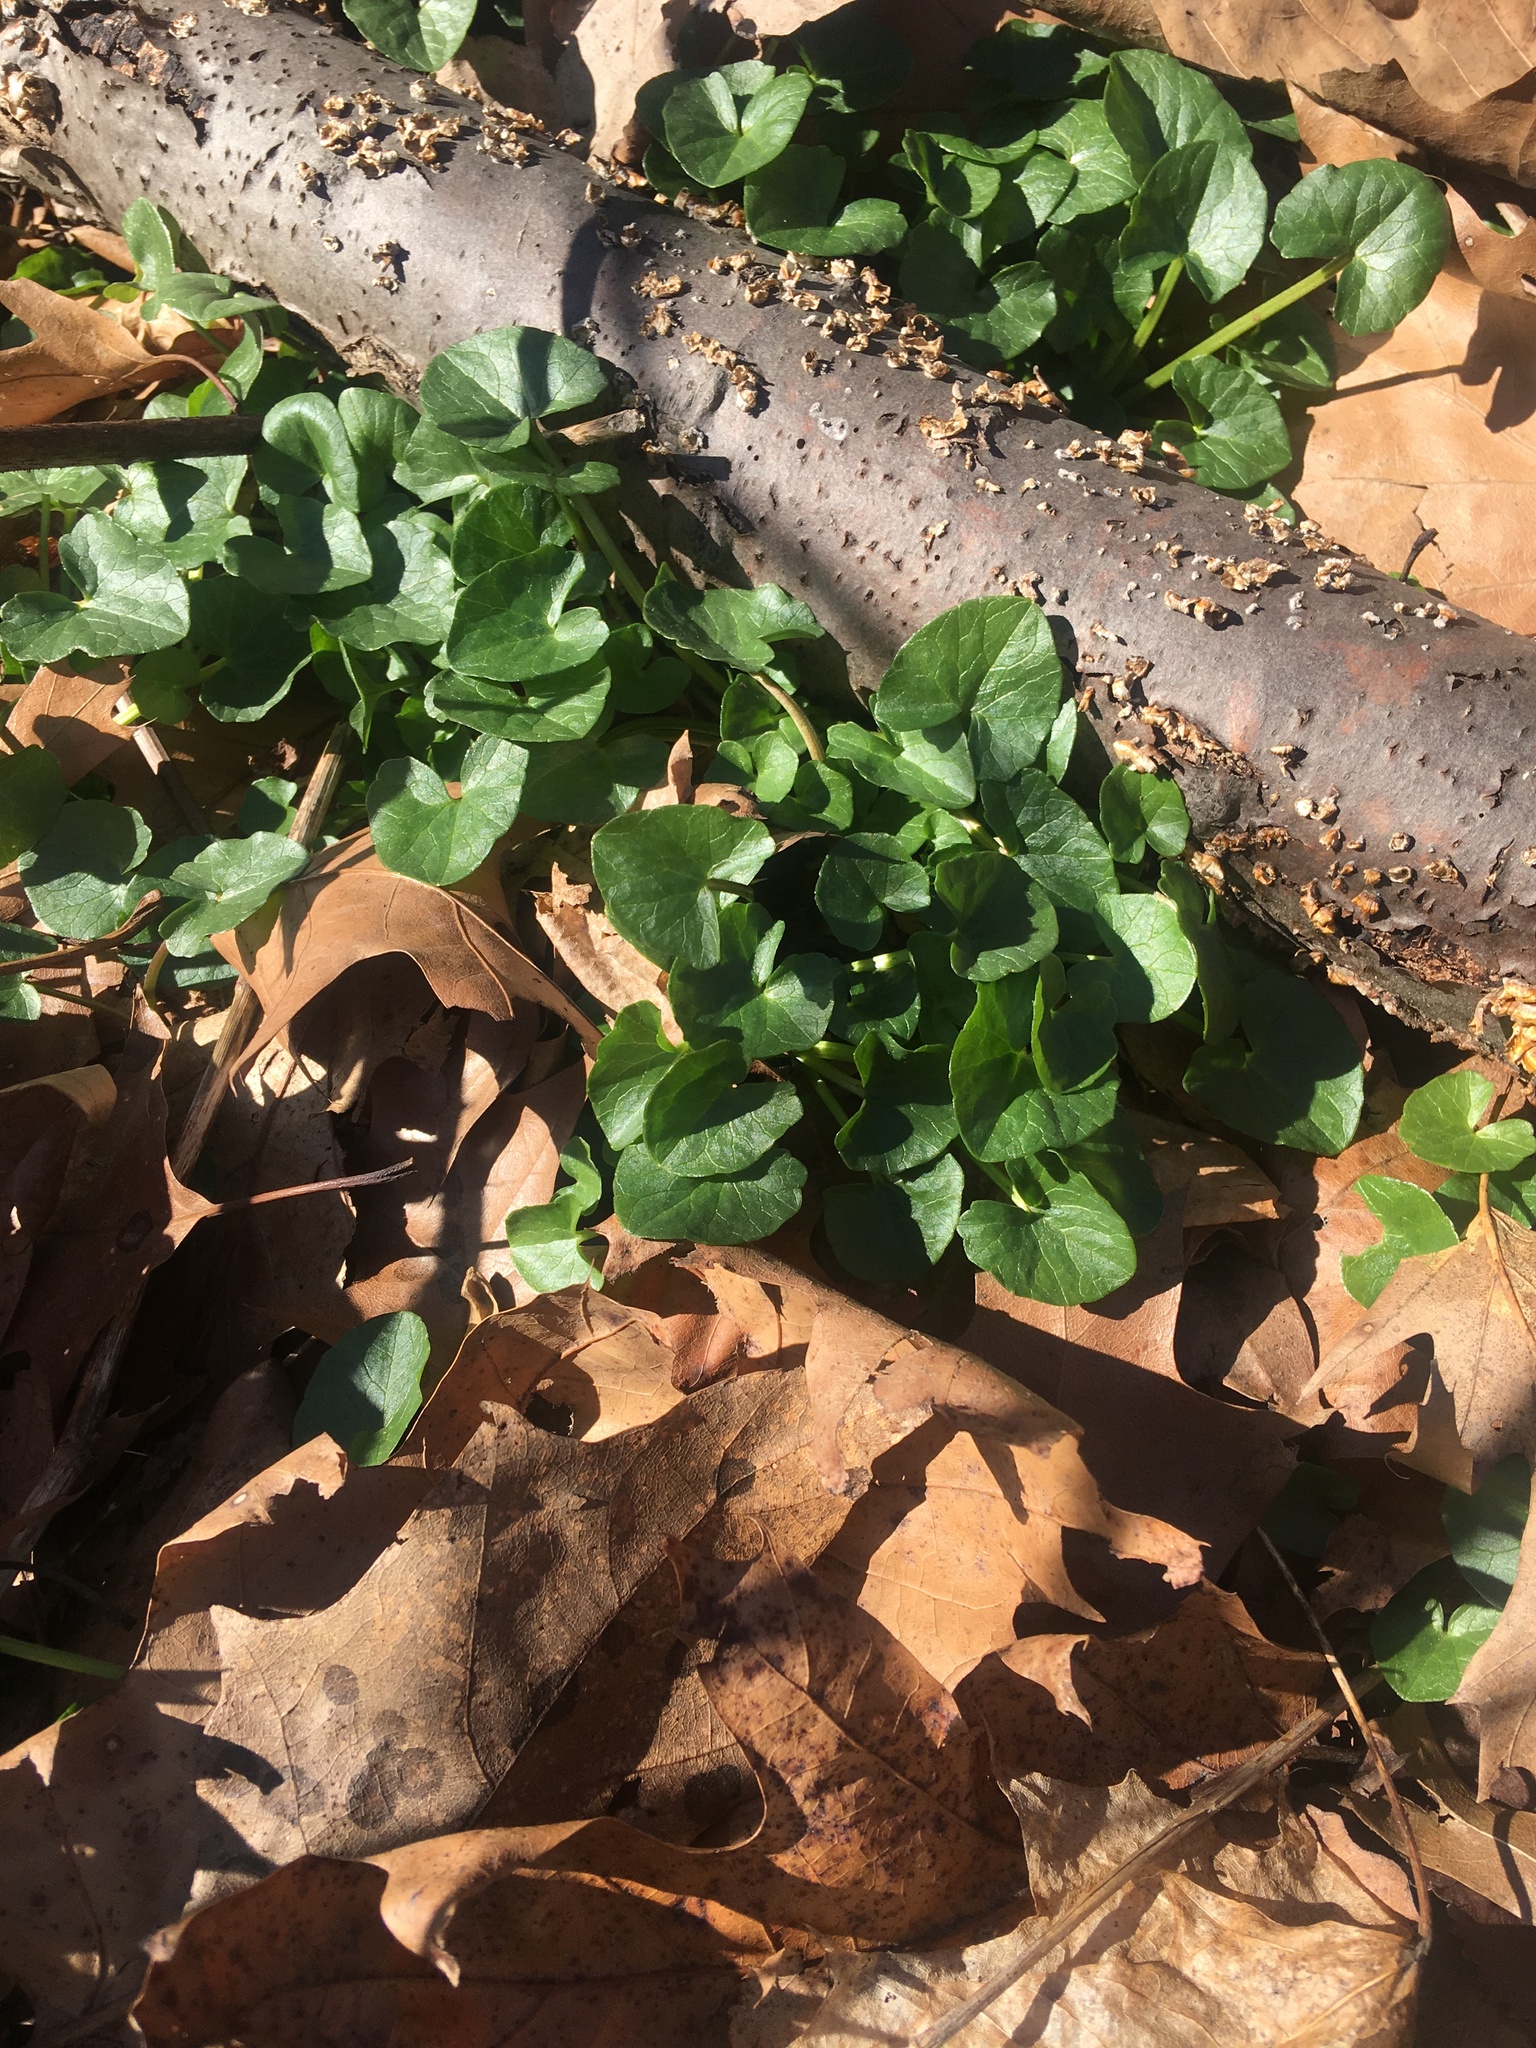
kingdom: Plantae
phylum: Tracheophyta
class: Magnoliopsida
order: Ranunculales
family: Ranunculaceae
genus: Ficaria
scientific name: Ficaria verna
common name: Lesser celandine
